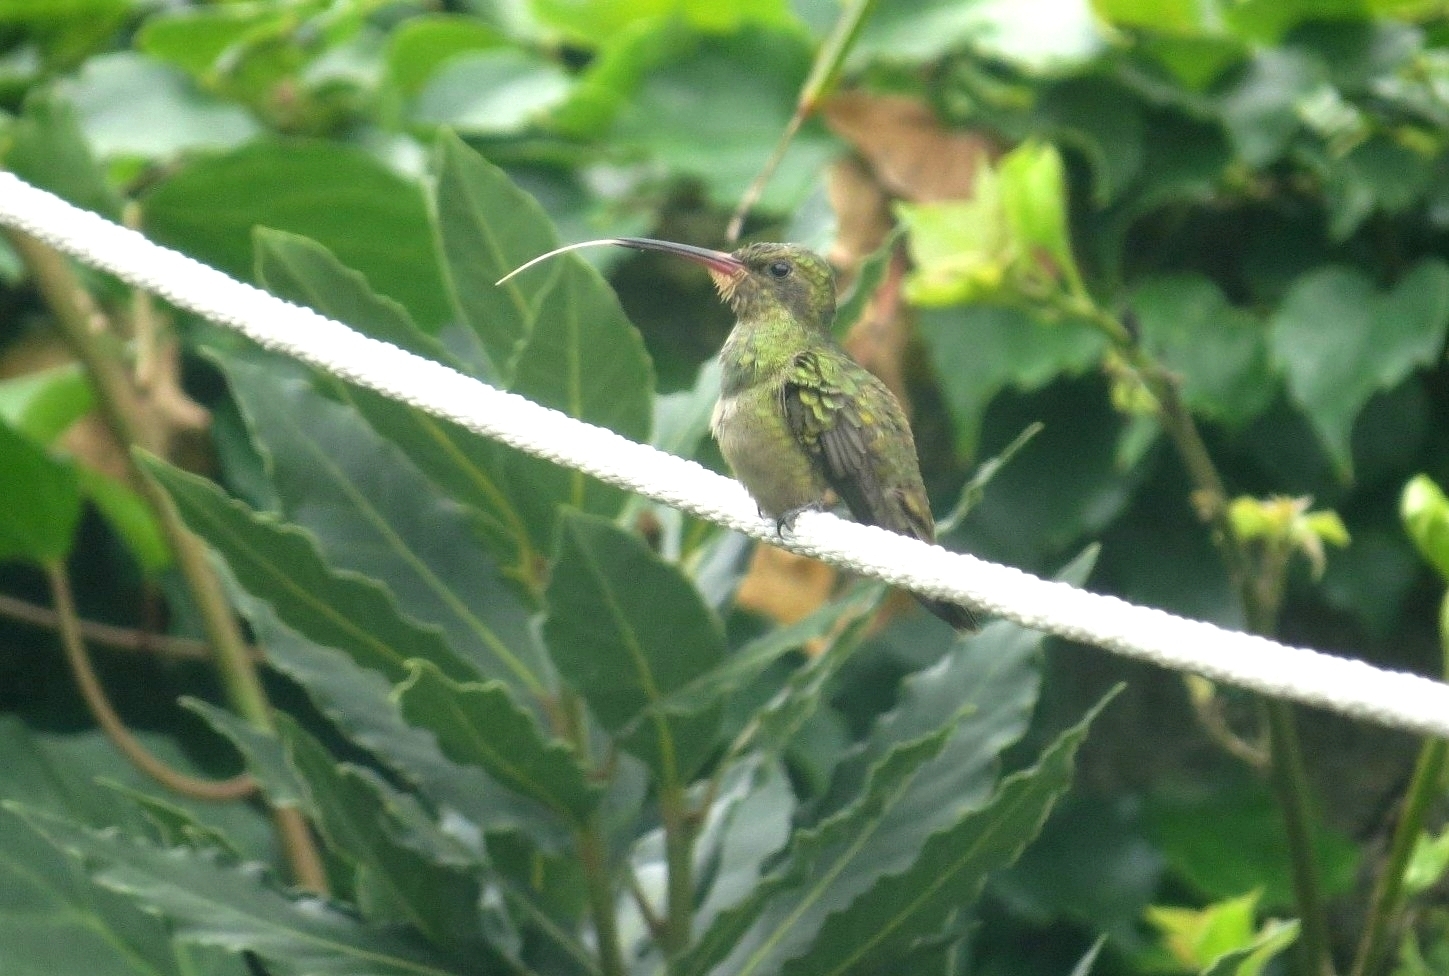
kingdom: Animalia
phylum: Chordata
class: Aves
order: Apodiformes
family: Trochilidae
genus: Hylocharis
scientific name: Hylocharis chrysura
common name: Gilded sapphire
